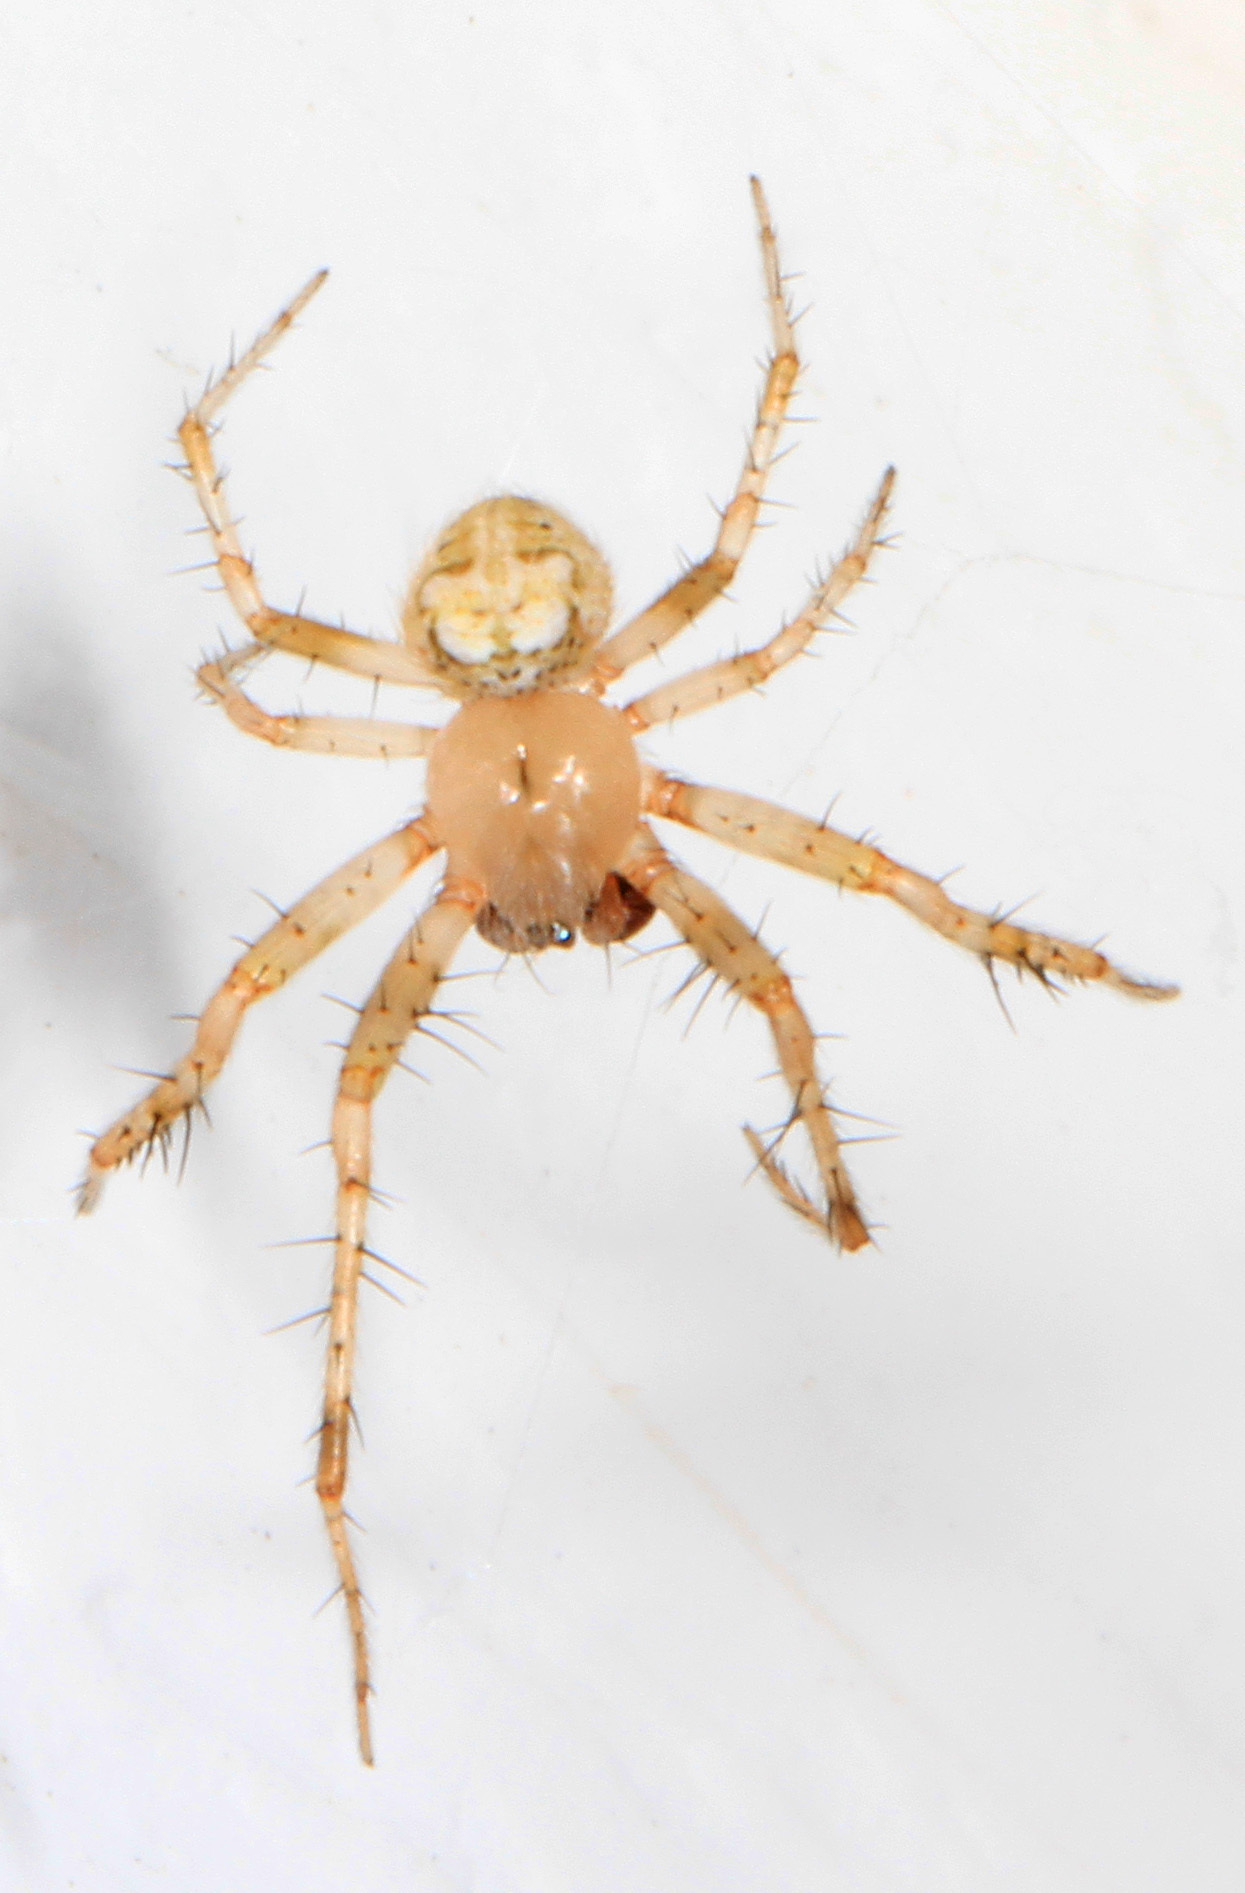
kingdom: Animalia
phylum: Arthropoda
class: Arachnida
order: Araneae
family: Araneidae
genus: Araneus
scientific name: Araneus pegnia
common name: Orb weavers
